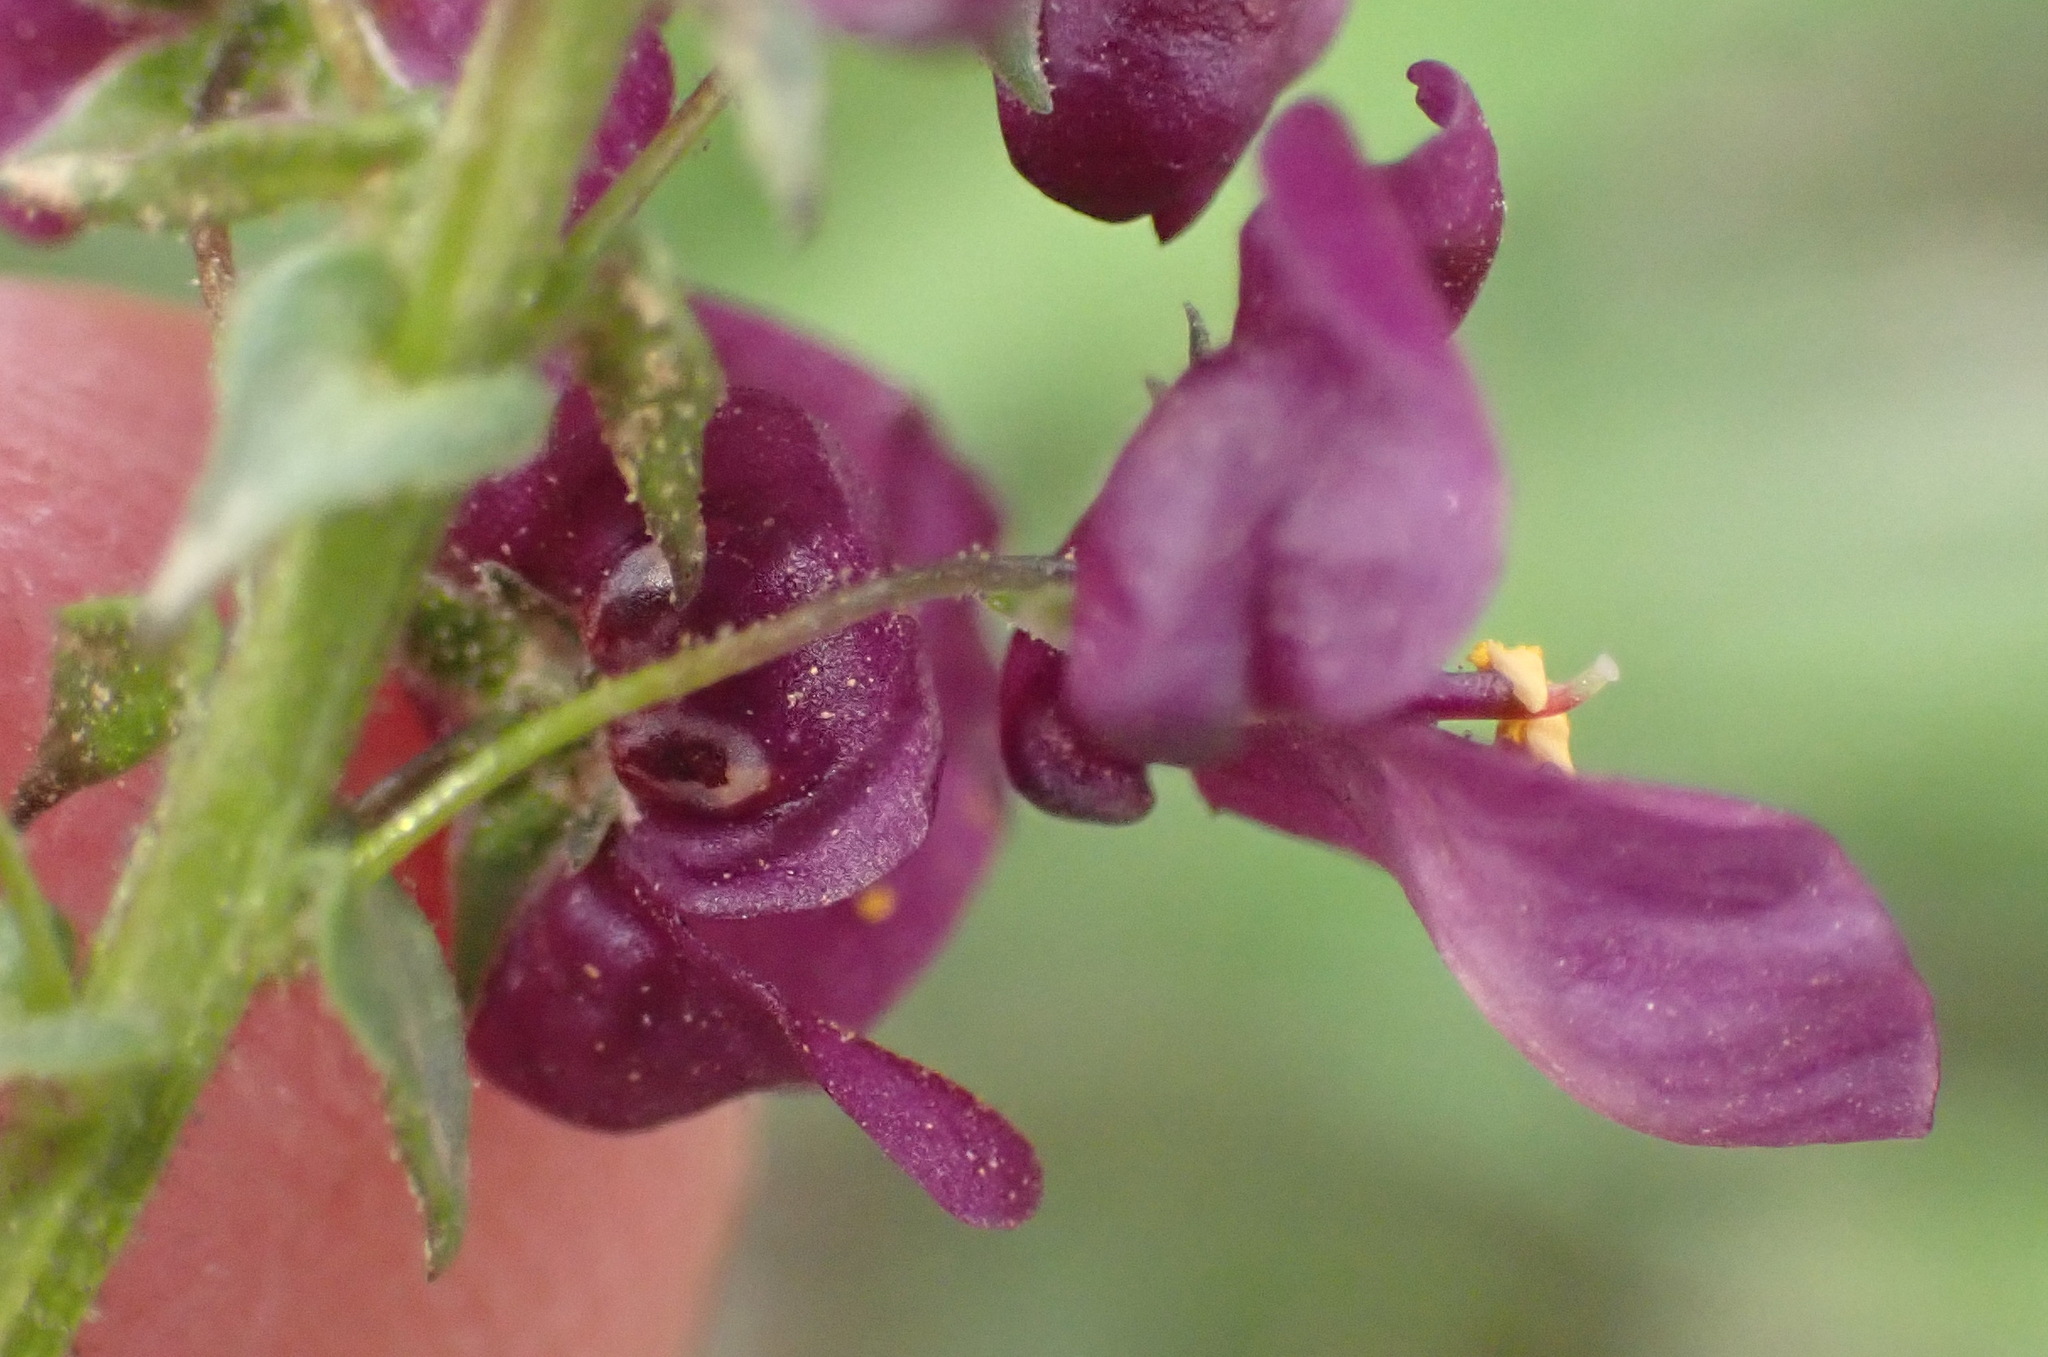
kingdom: Plantae
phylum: Tracheophyta
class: Magnoliopsida
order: Lamiales
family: Scrophulariaceae
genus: Diascia
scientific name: Diascia parviflora
